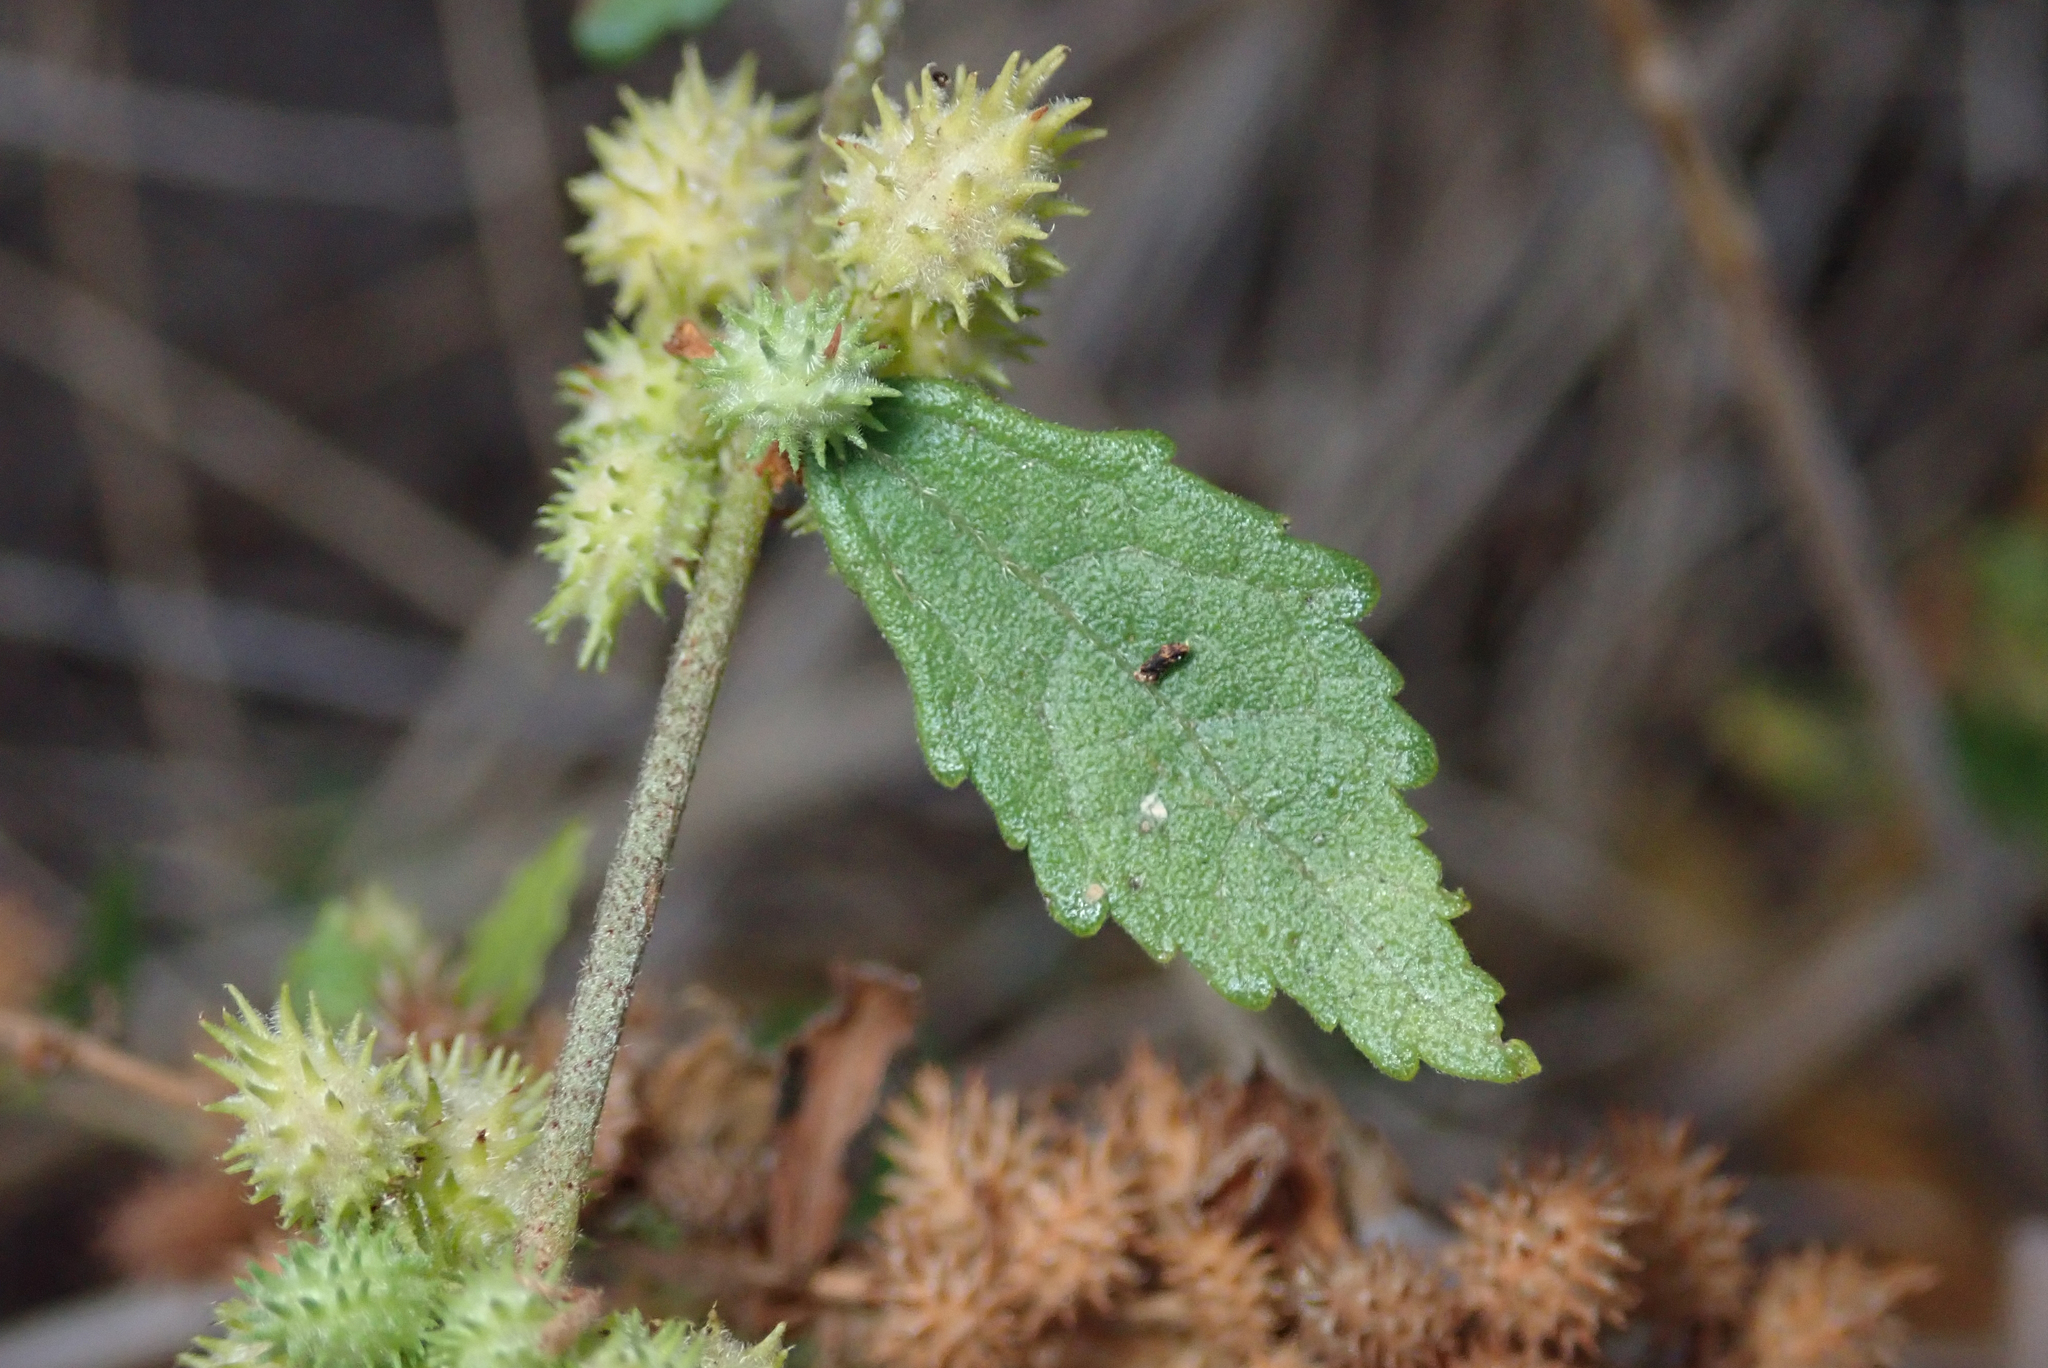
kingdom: Plantae
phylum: Tracheophyta
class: Magnoliopsida
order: Malvales
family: Malvaceae
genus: Triumfetta
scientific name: Triumfetta pentandra
